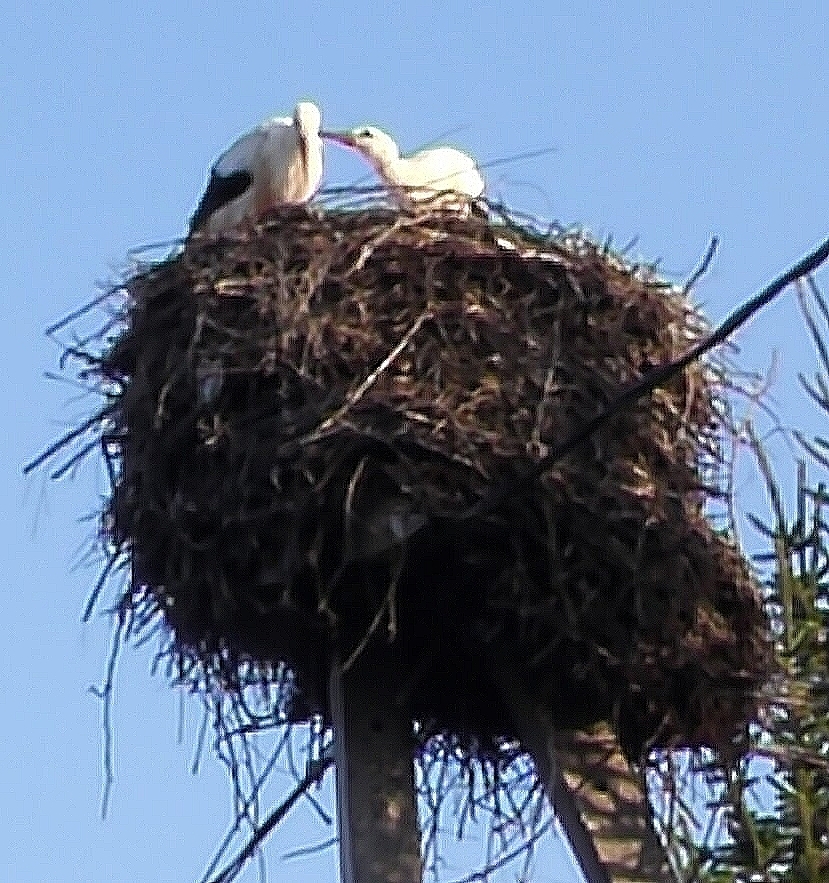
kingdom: Animalia
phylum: Chordata
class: Aves
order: Ciconiiformes
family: Ciconiidae
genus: Ciconia
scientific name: Ciconia ciconia
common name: White stork
